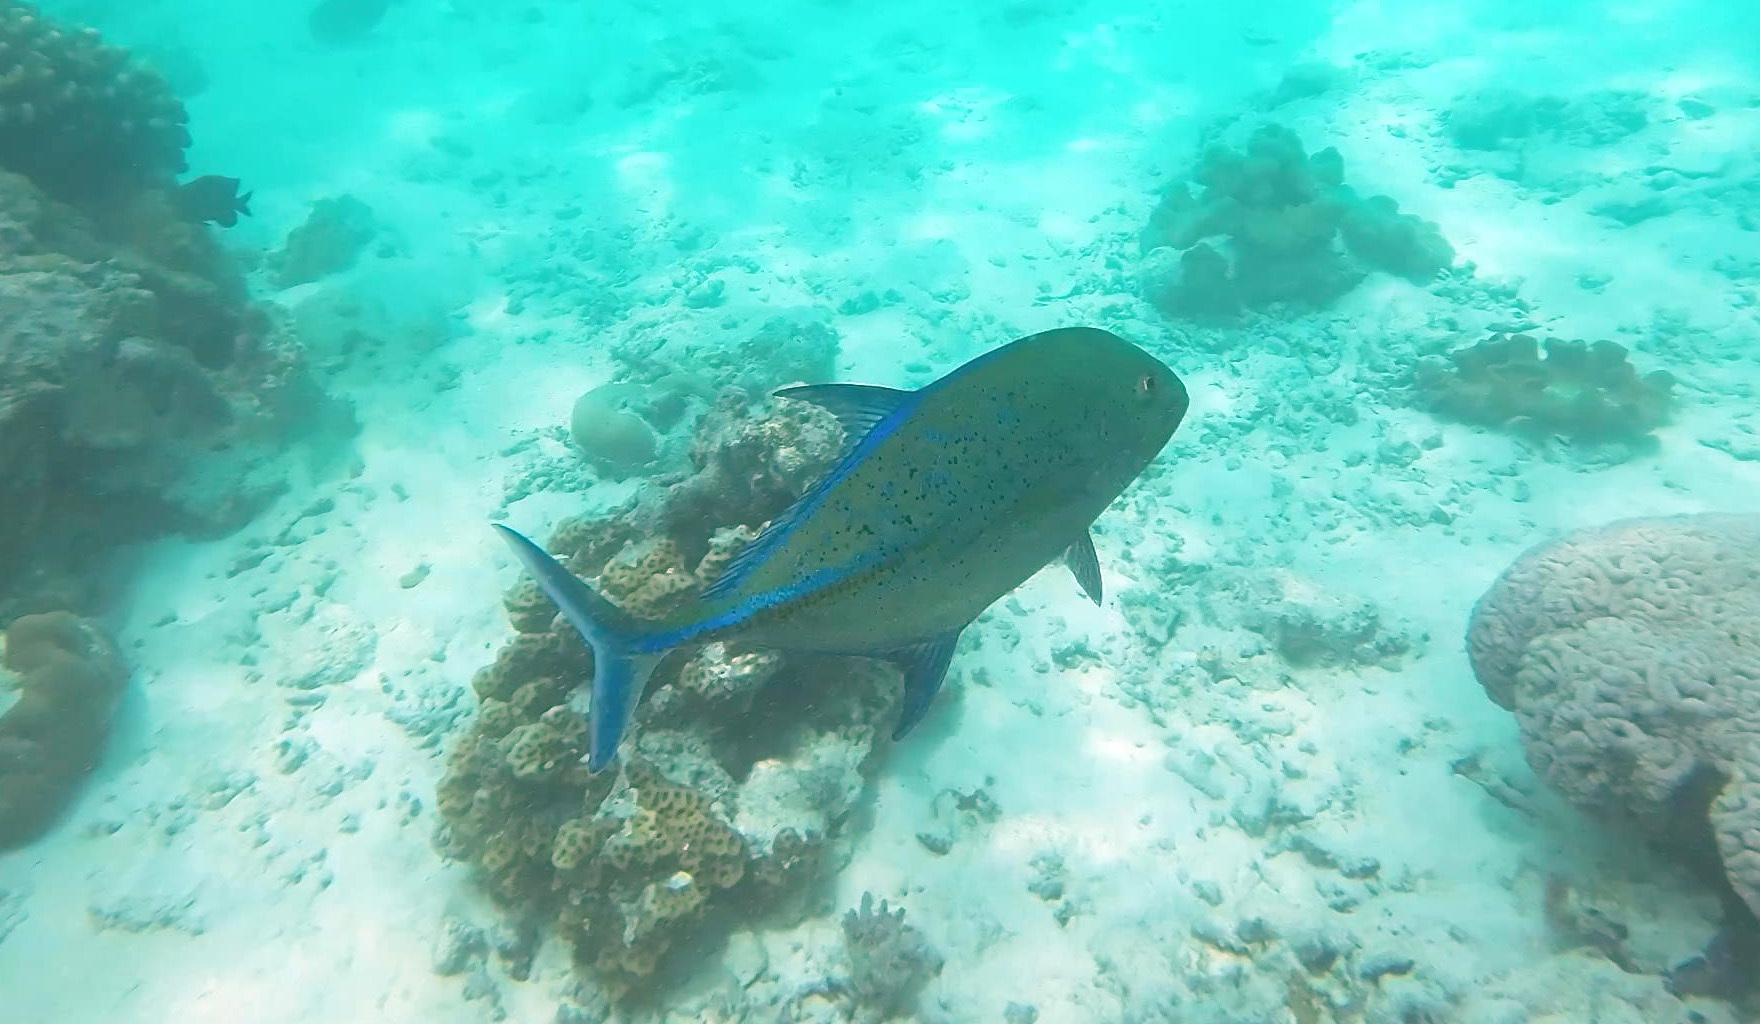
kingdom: Animalia
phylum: Chordata
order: Perciformes
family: Carangidae
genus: Caranx
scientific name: Caranx melampygus
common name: Bluefin trevally
